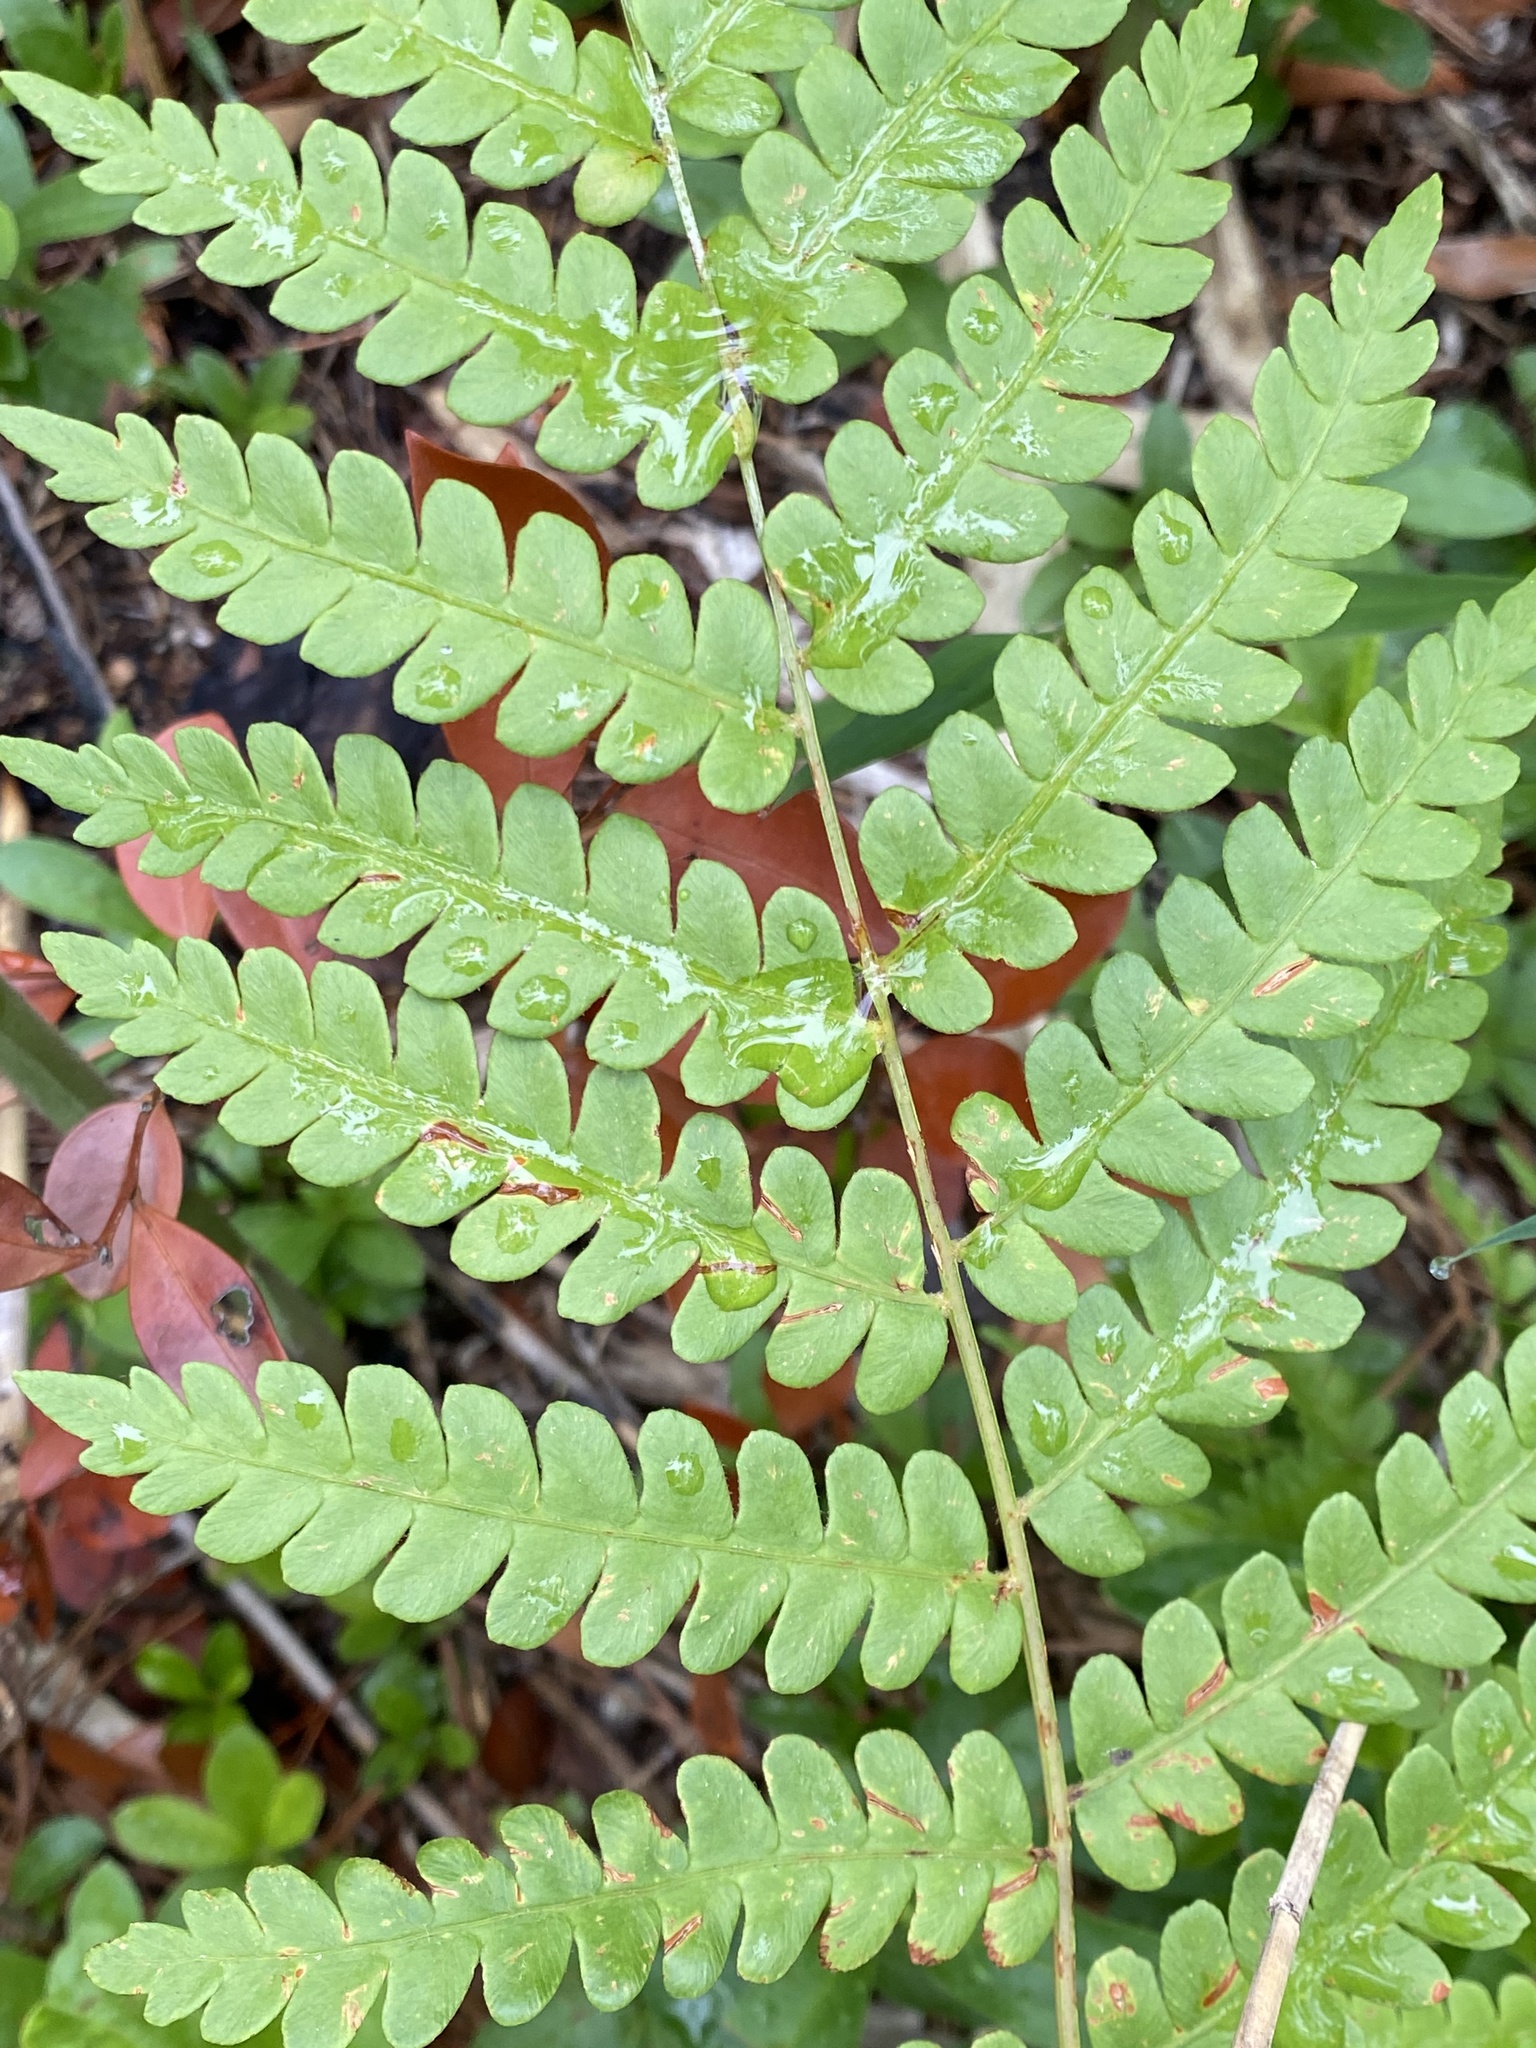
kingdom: Plantae
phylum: Tracheophyta
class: Polypodiopsida
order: Osmundales
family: Osmundaceae
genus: Osmundastrum
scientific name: Osmundastrum cinnamomeum
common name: Cinnamon fern
